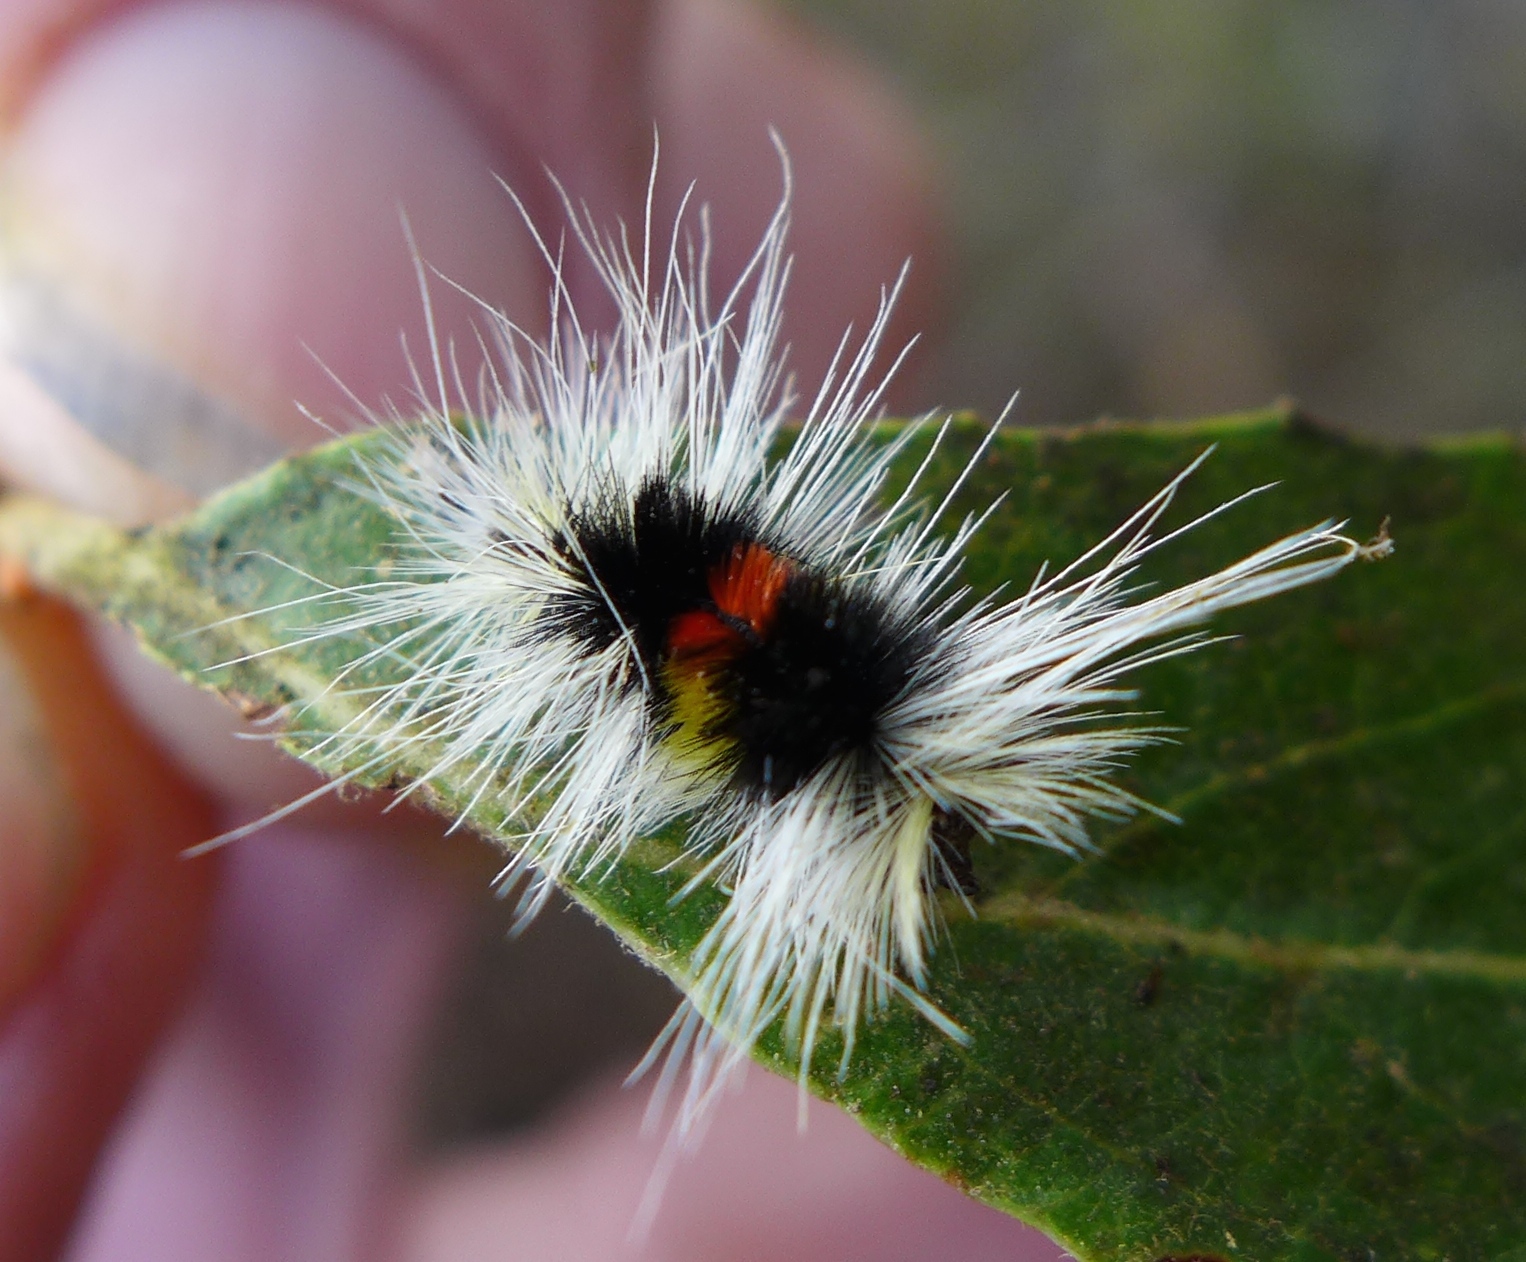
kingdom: Animalia
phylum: Arthropoda
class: Insecta
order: Lepidoptera
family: Erebidae
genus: Lophocampa
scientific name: Lophocampa maculata
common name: Spotted tussock moth
